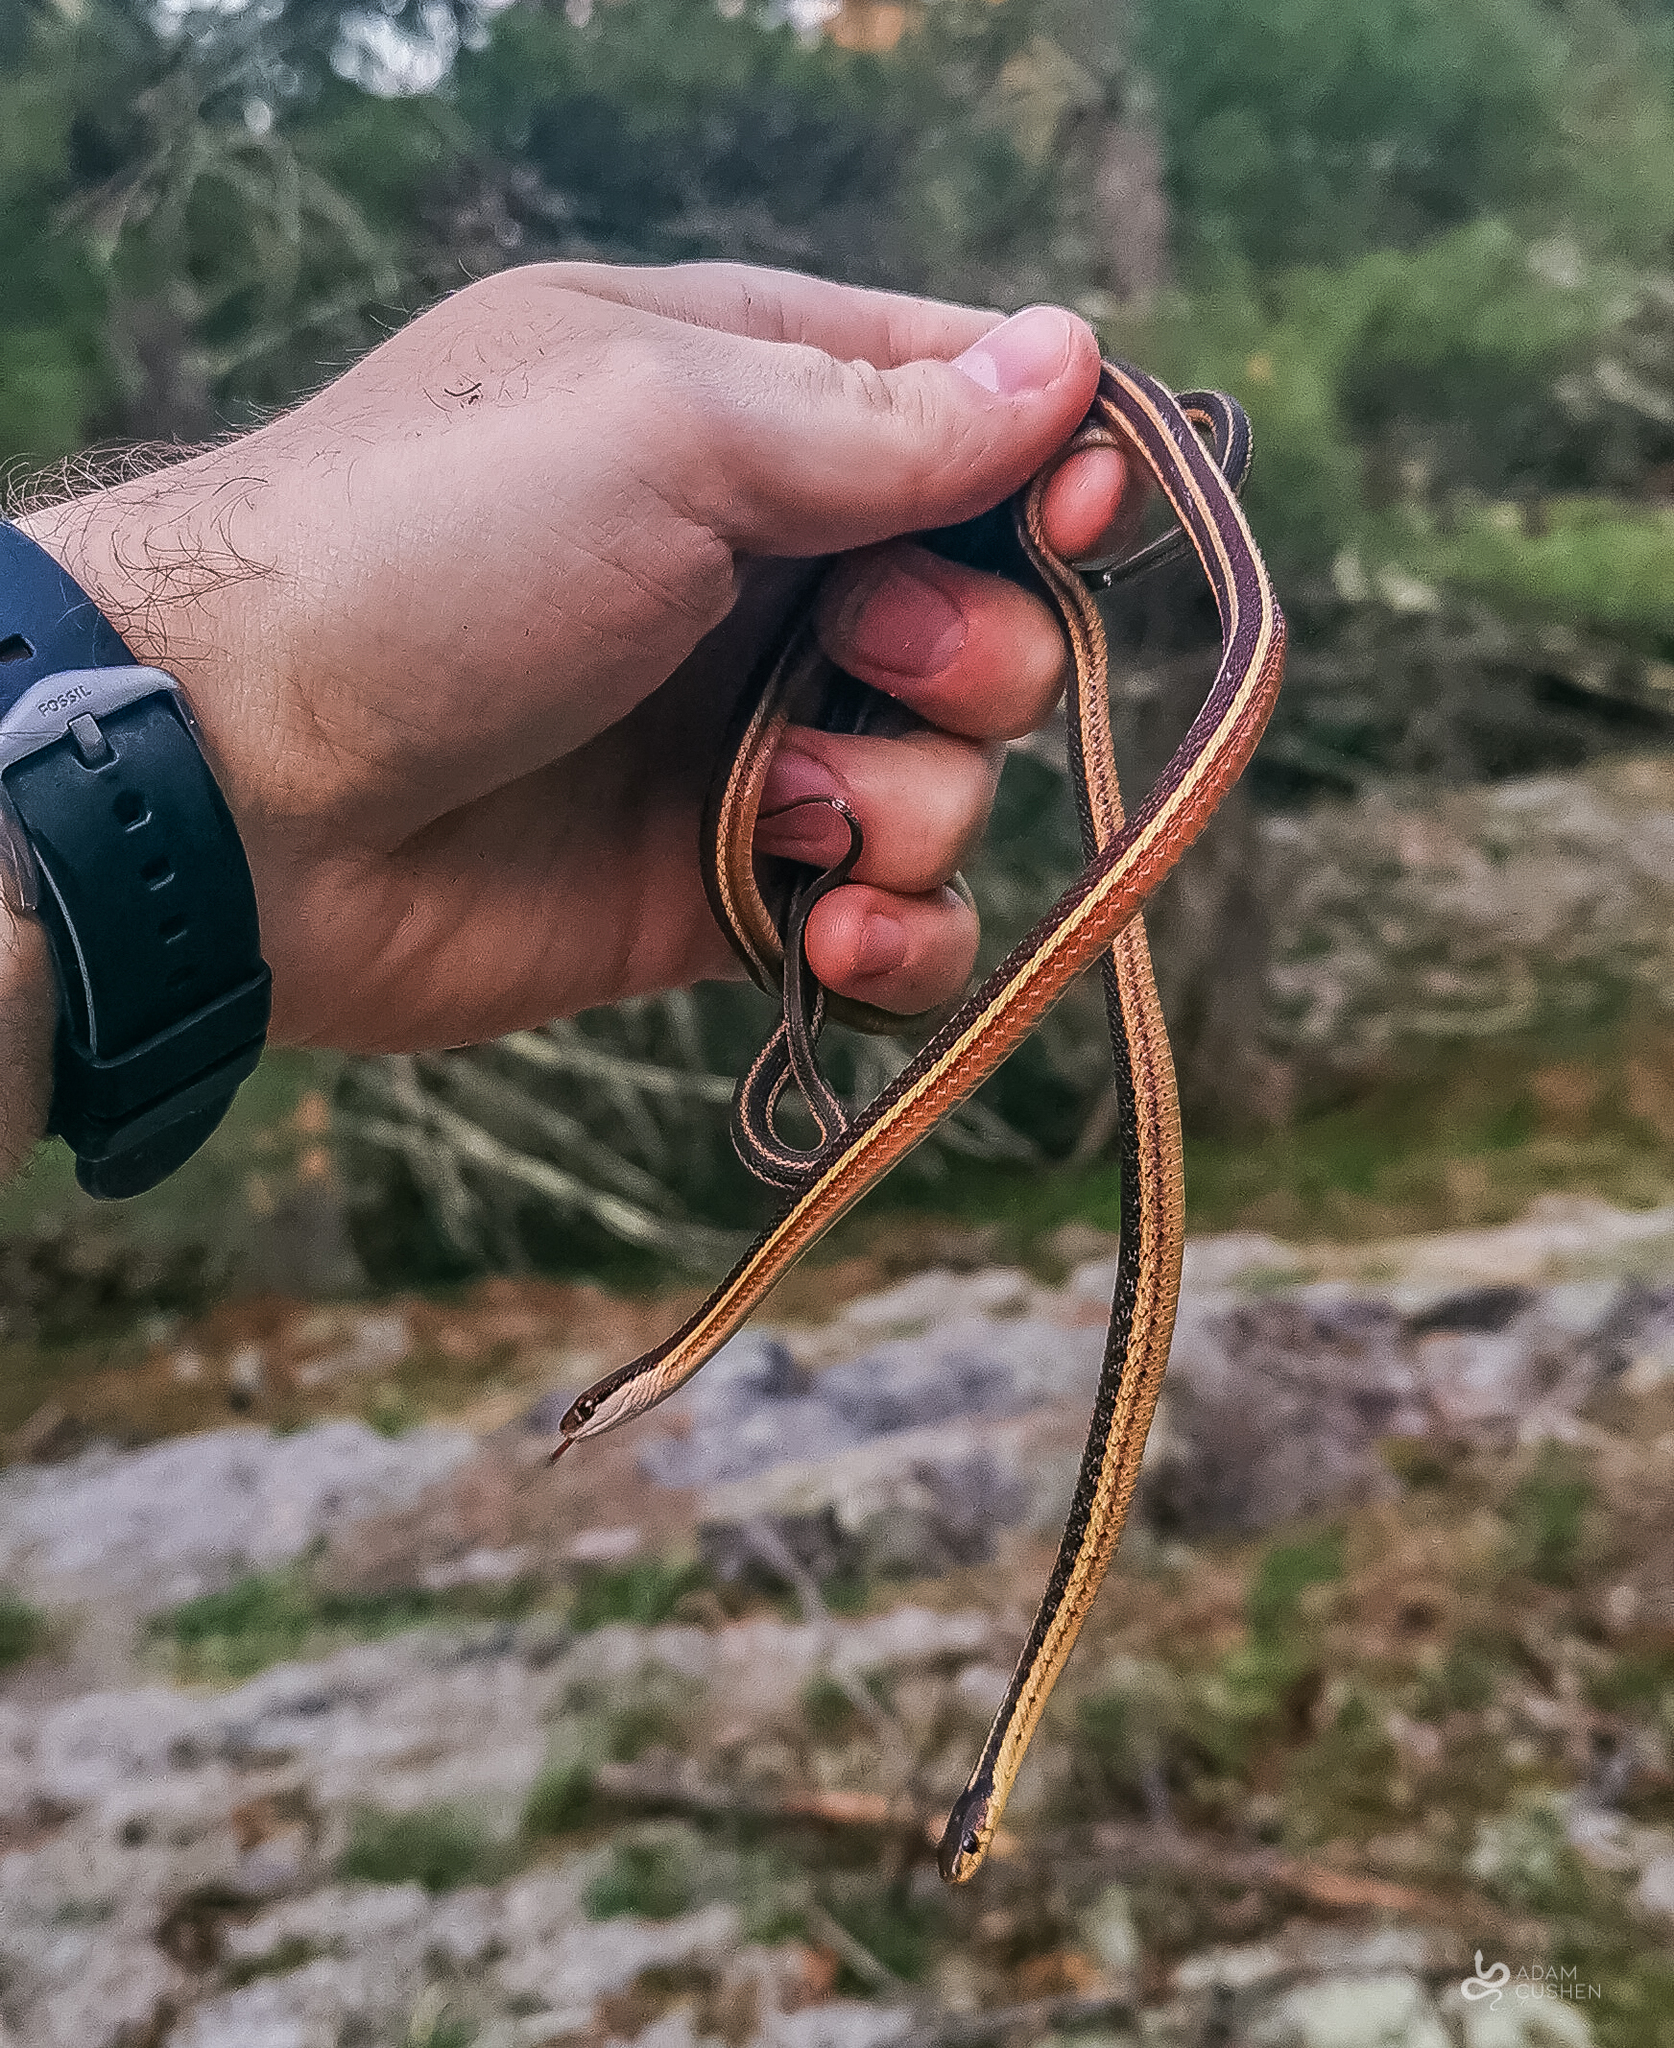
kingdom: Animalia
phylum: Chordata
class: Squamata
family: Colubridae
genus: Thamnophis
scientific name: Thamnophis saurita
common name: Eastern ribbonsnake
